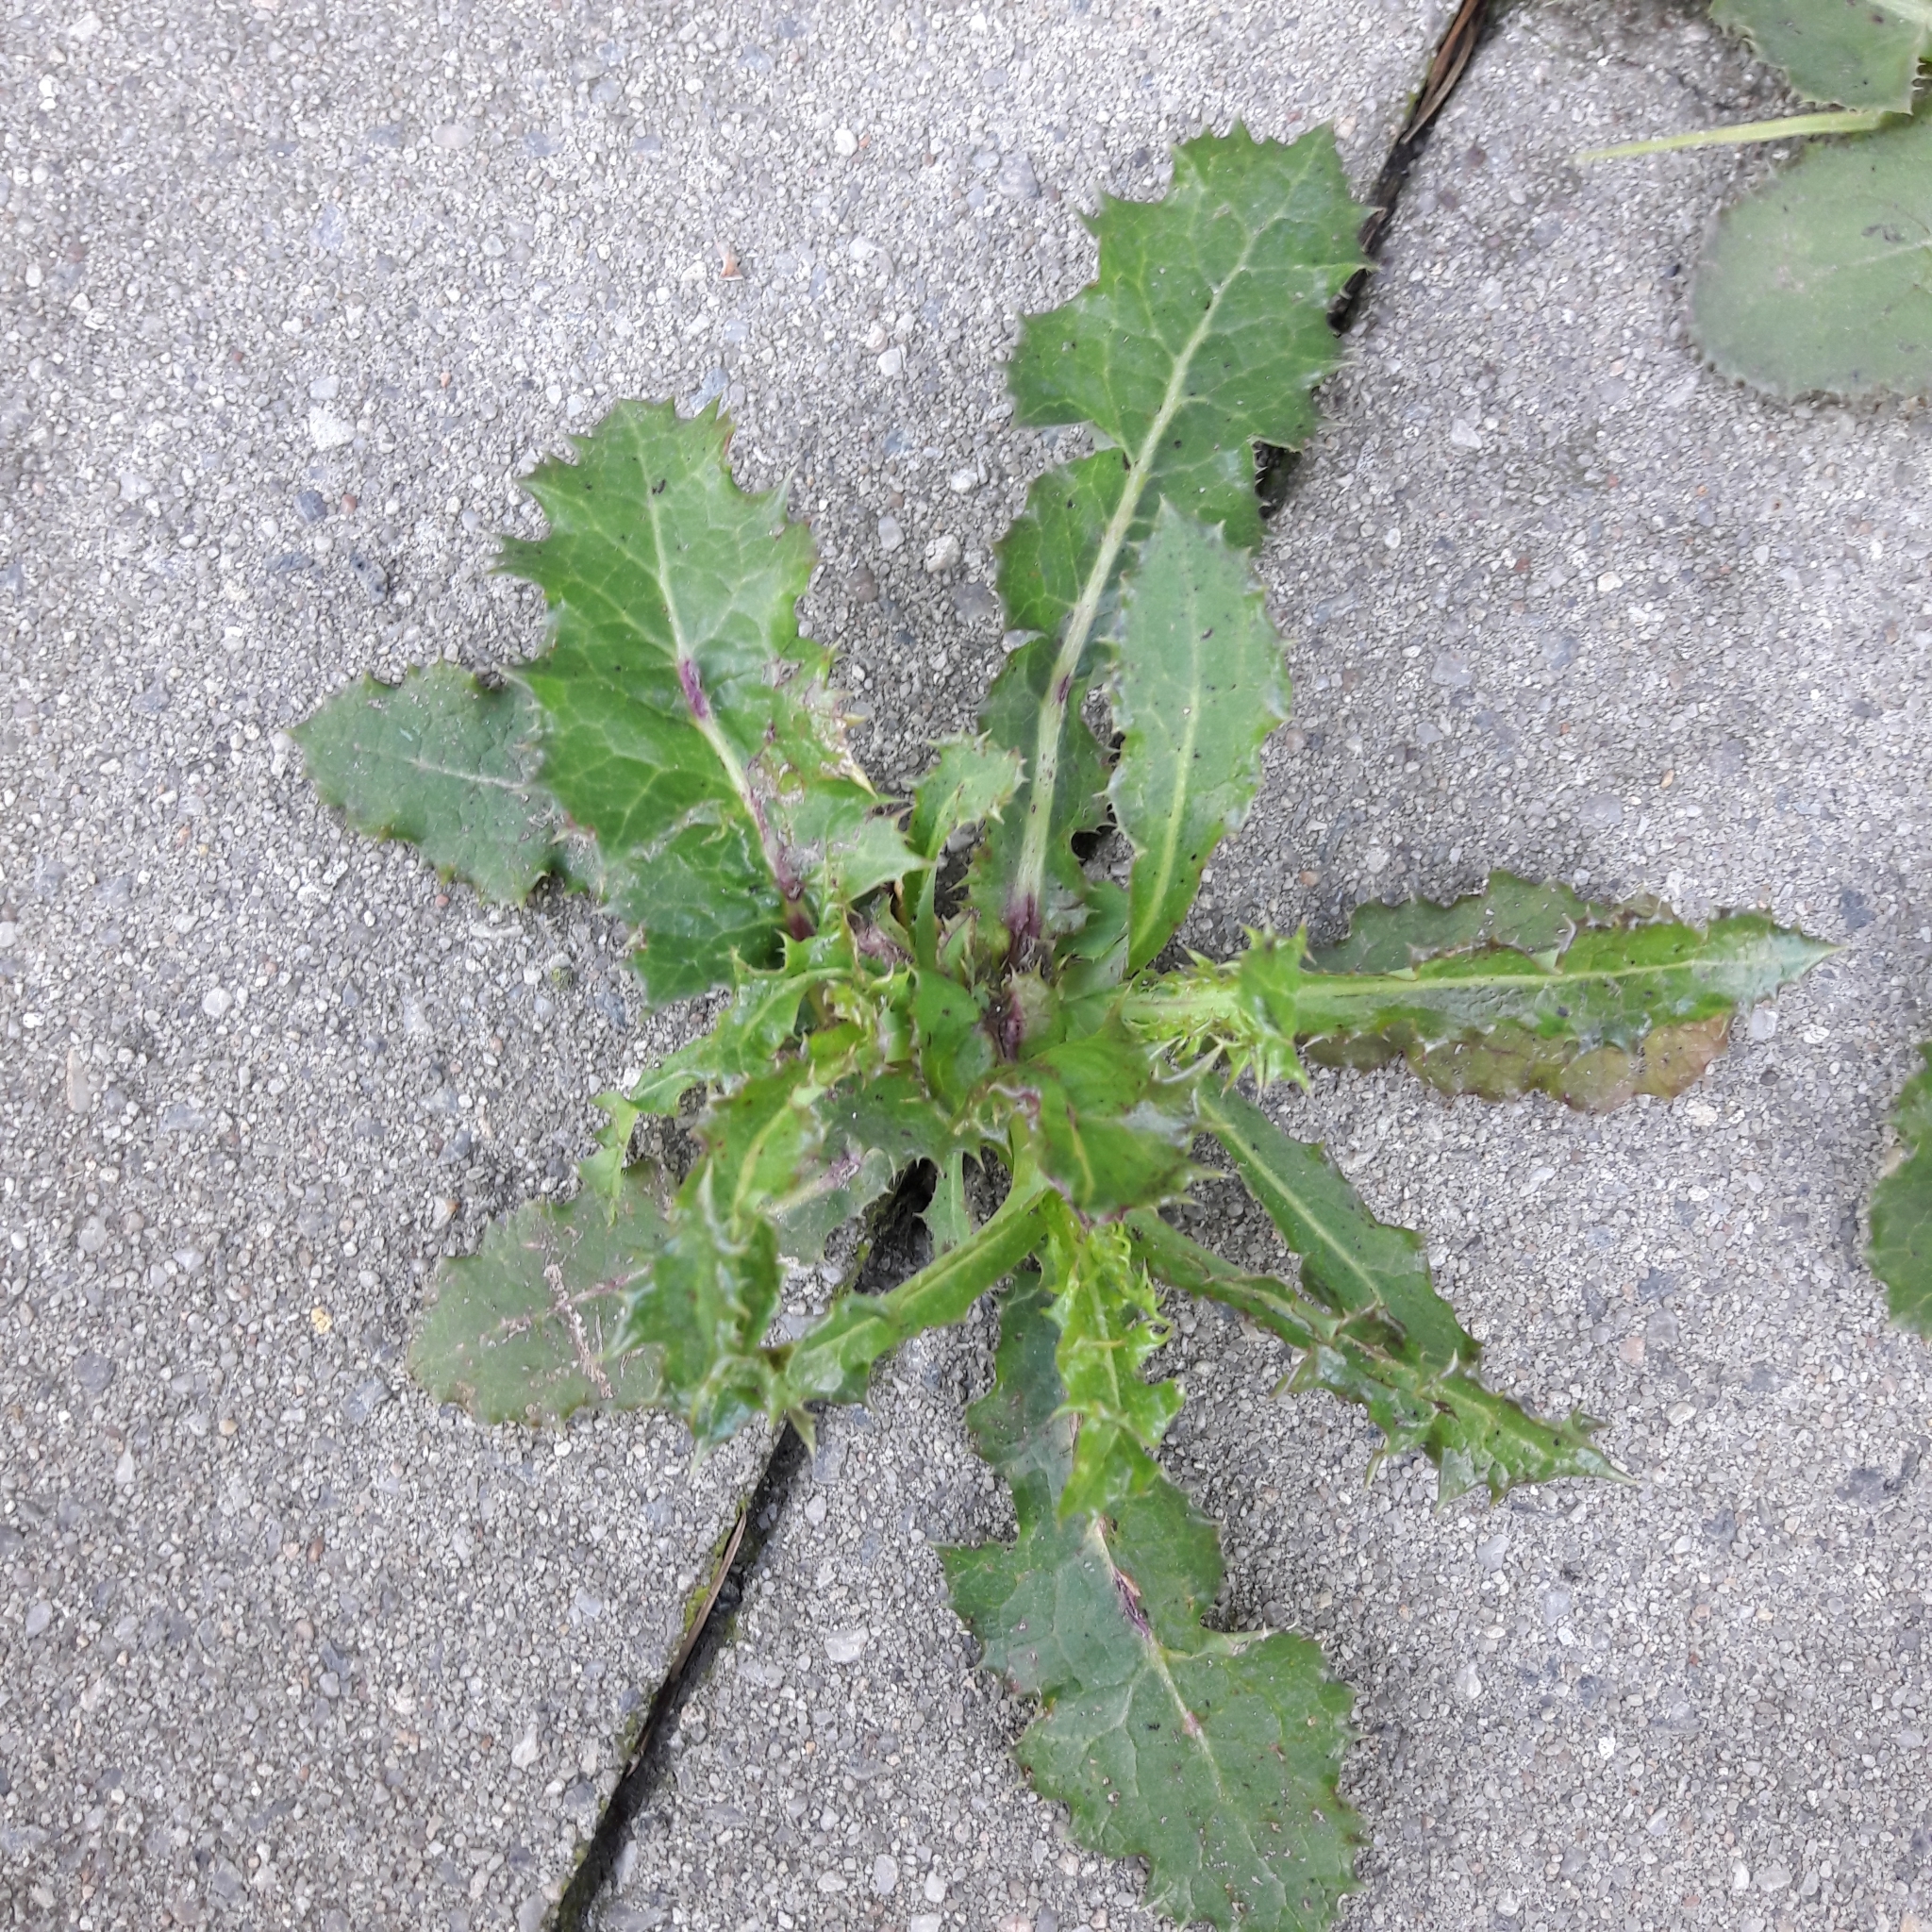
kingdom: Plantae
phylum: Tracheophyta
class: Magnoliopsida
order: Asterales
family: Asteraceae
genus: Sonchus
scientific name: Sonchus asper
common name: Prickly sow-thistle
